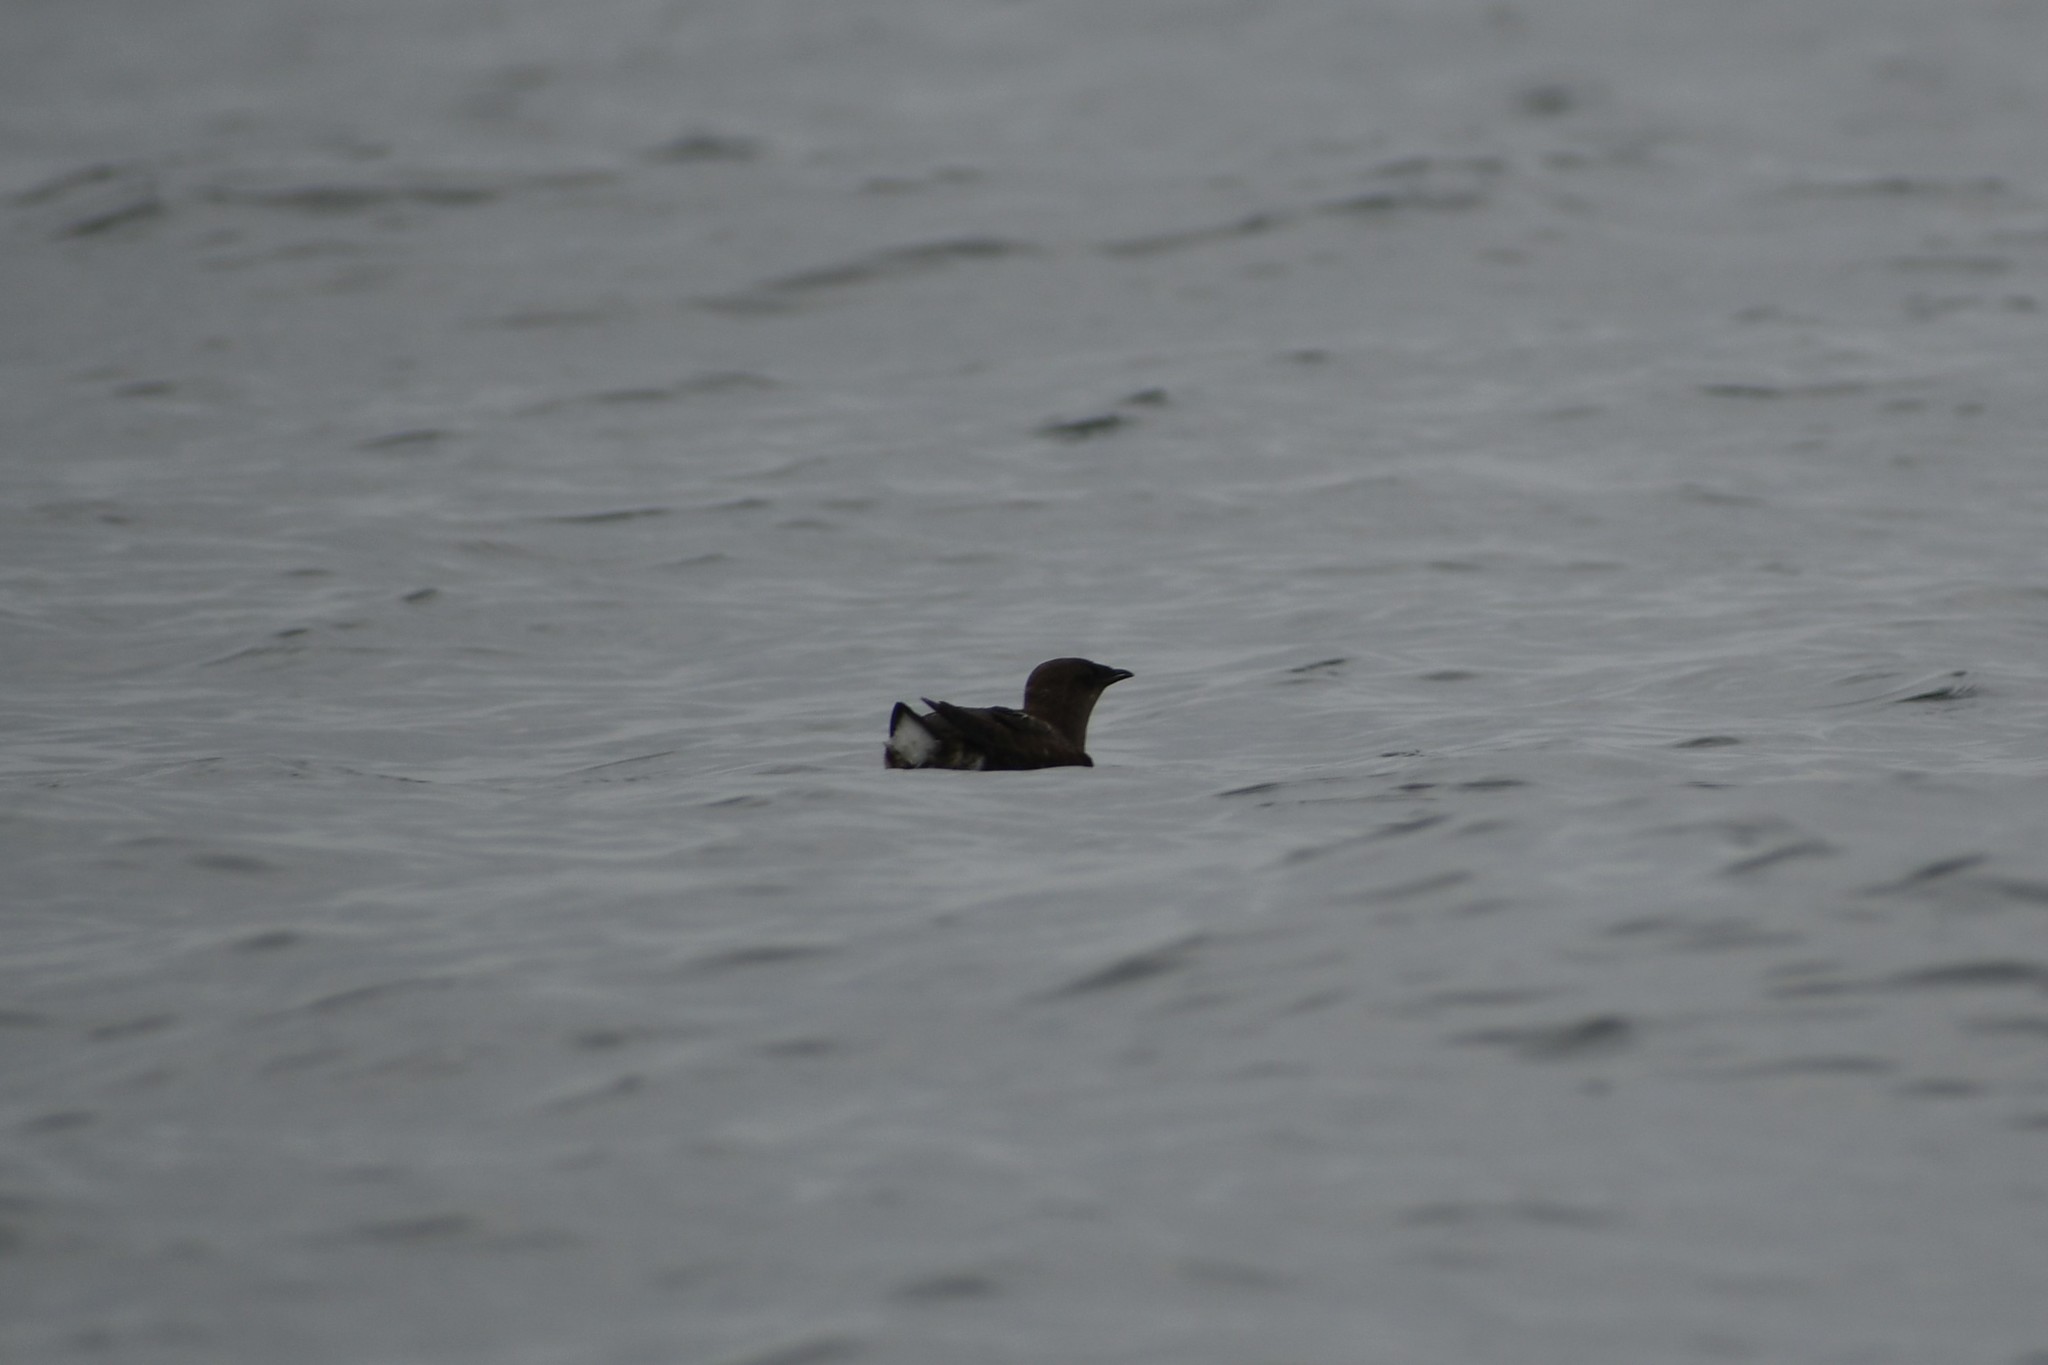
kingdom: Animalia
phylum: Chordata
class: Aves
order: Charadriiformes
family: Alcidae
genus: Brachyramphus
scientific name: Brachyramphus marmoratus
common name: Marbled murrelet
